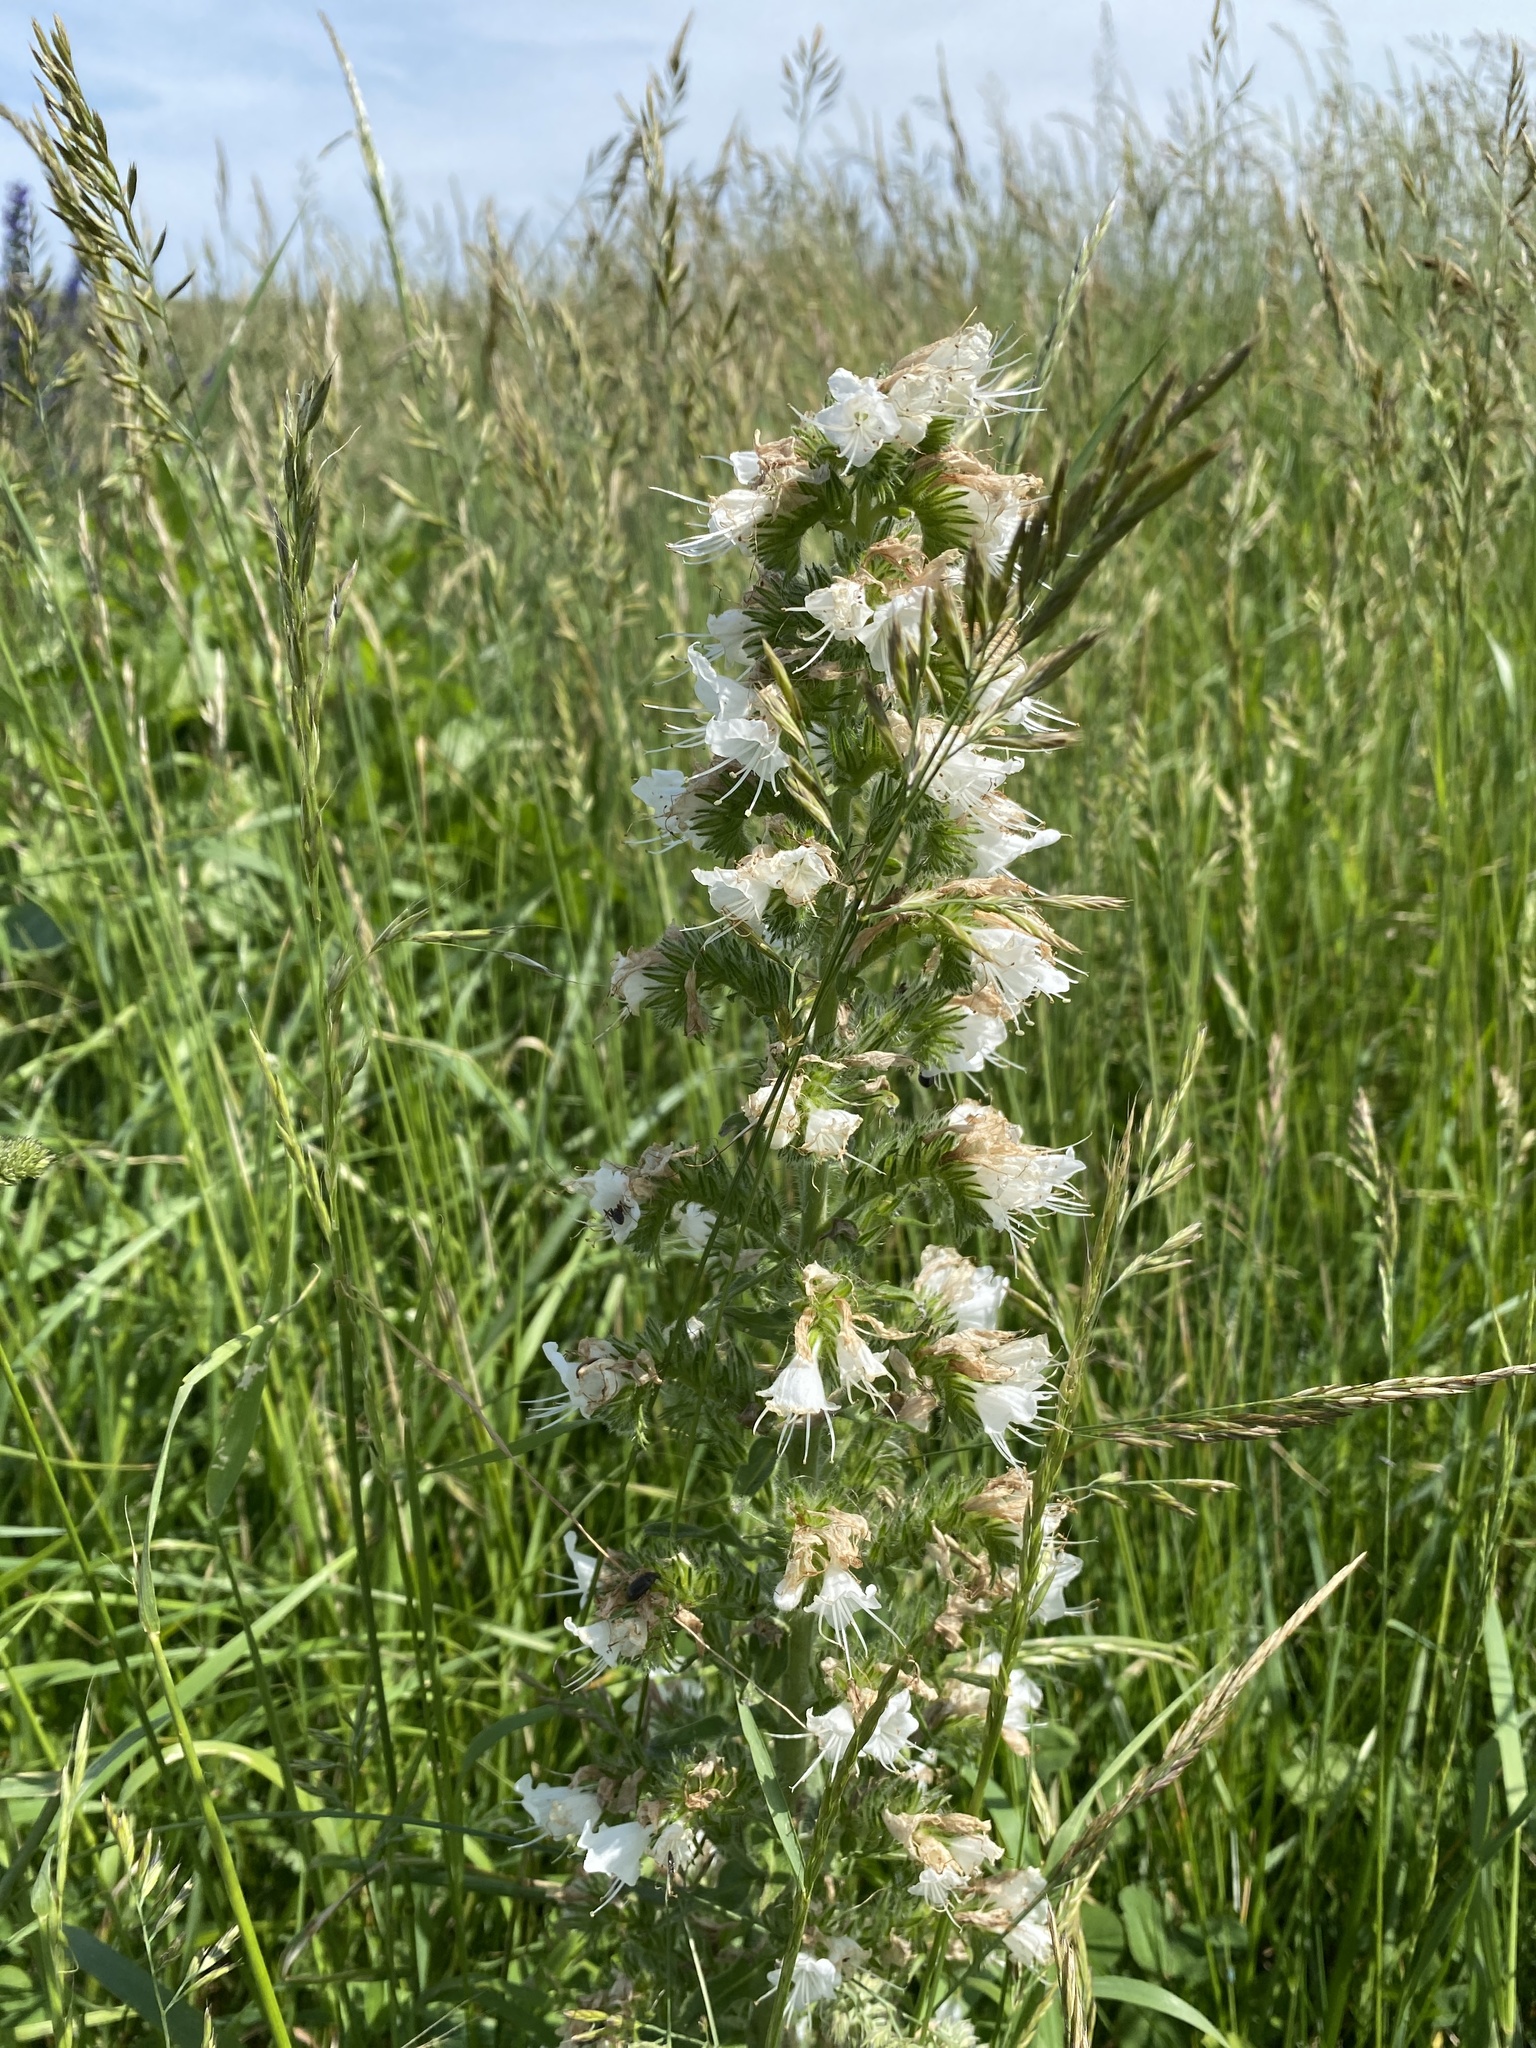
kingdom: Plantae
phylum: Tracheophyta
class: Magnoliopsida
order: Boraginales
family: Boraginaceae
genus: Echium
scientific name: Echium vulgare
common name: Common viper's bugloss
